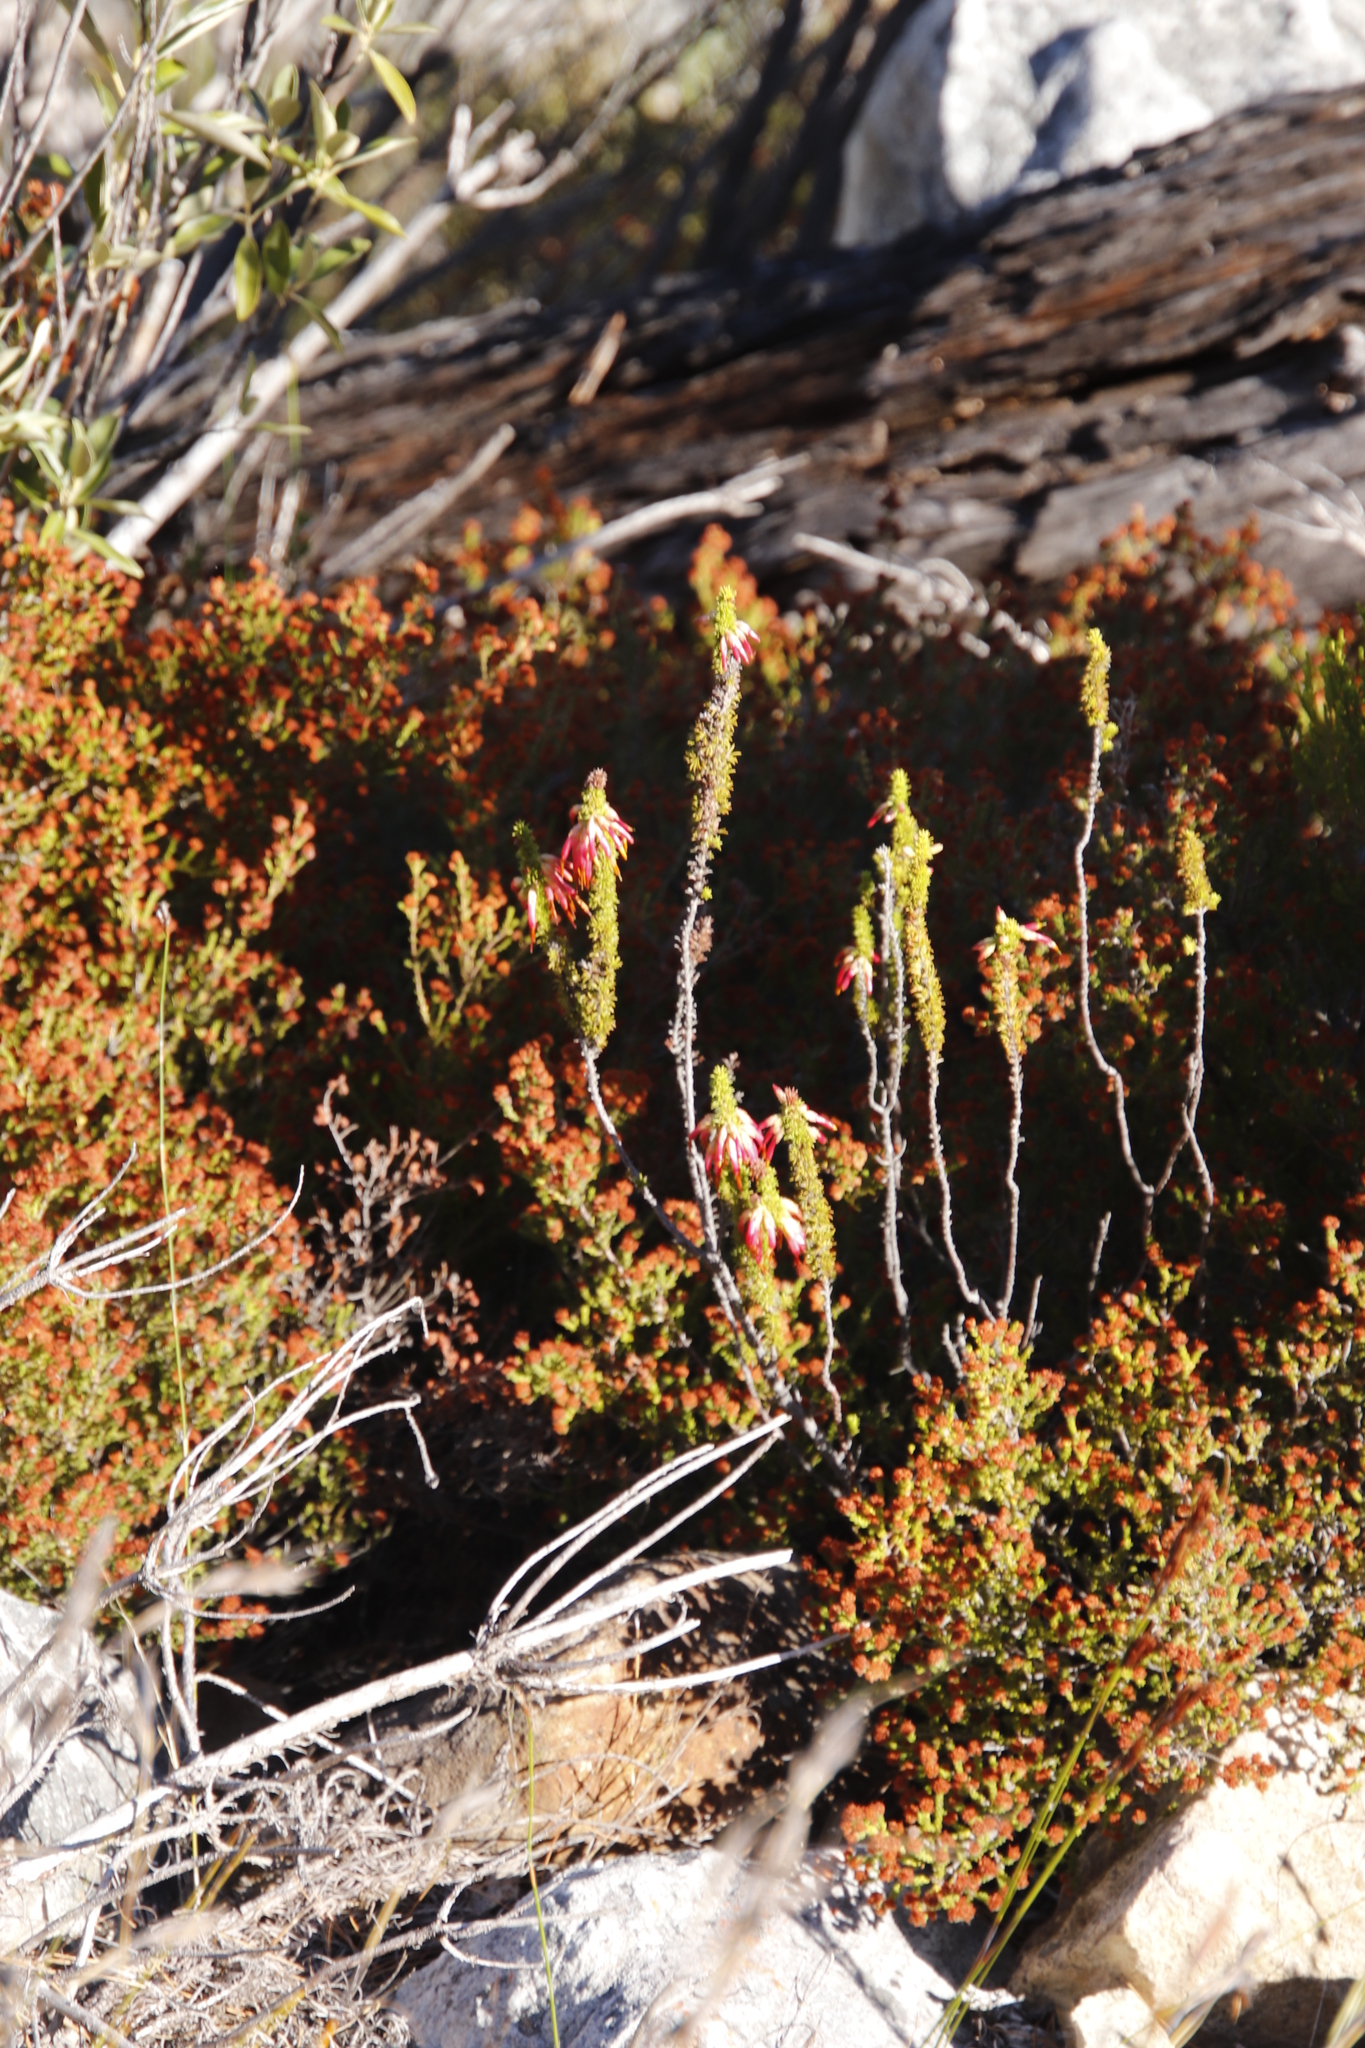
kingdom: Plantae
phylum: Tracheophyta
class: Magnoliopsida
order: Ericales
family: Ericaceae
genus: Erica
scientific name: Erica coccinea
